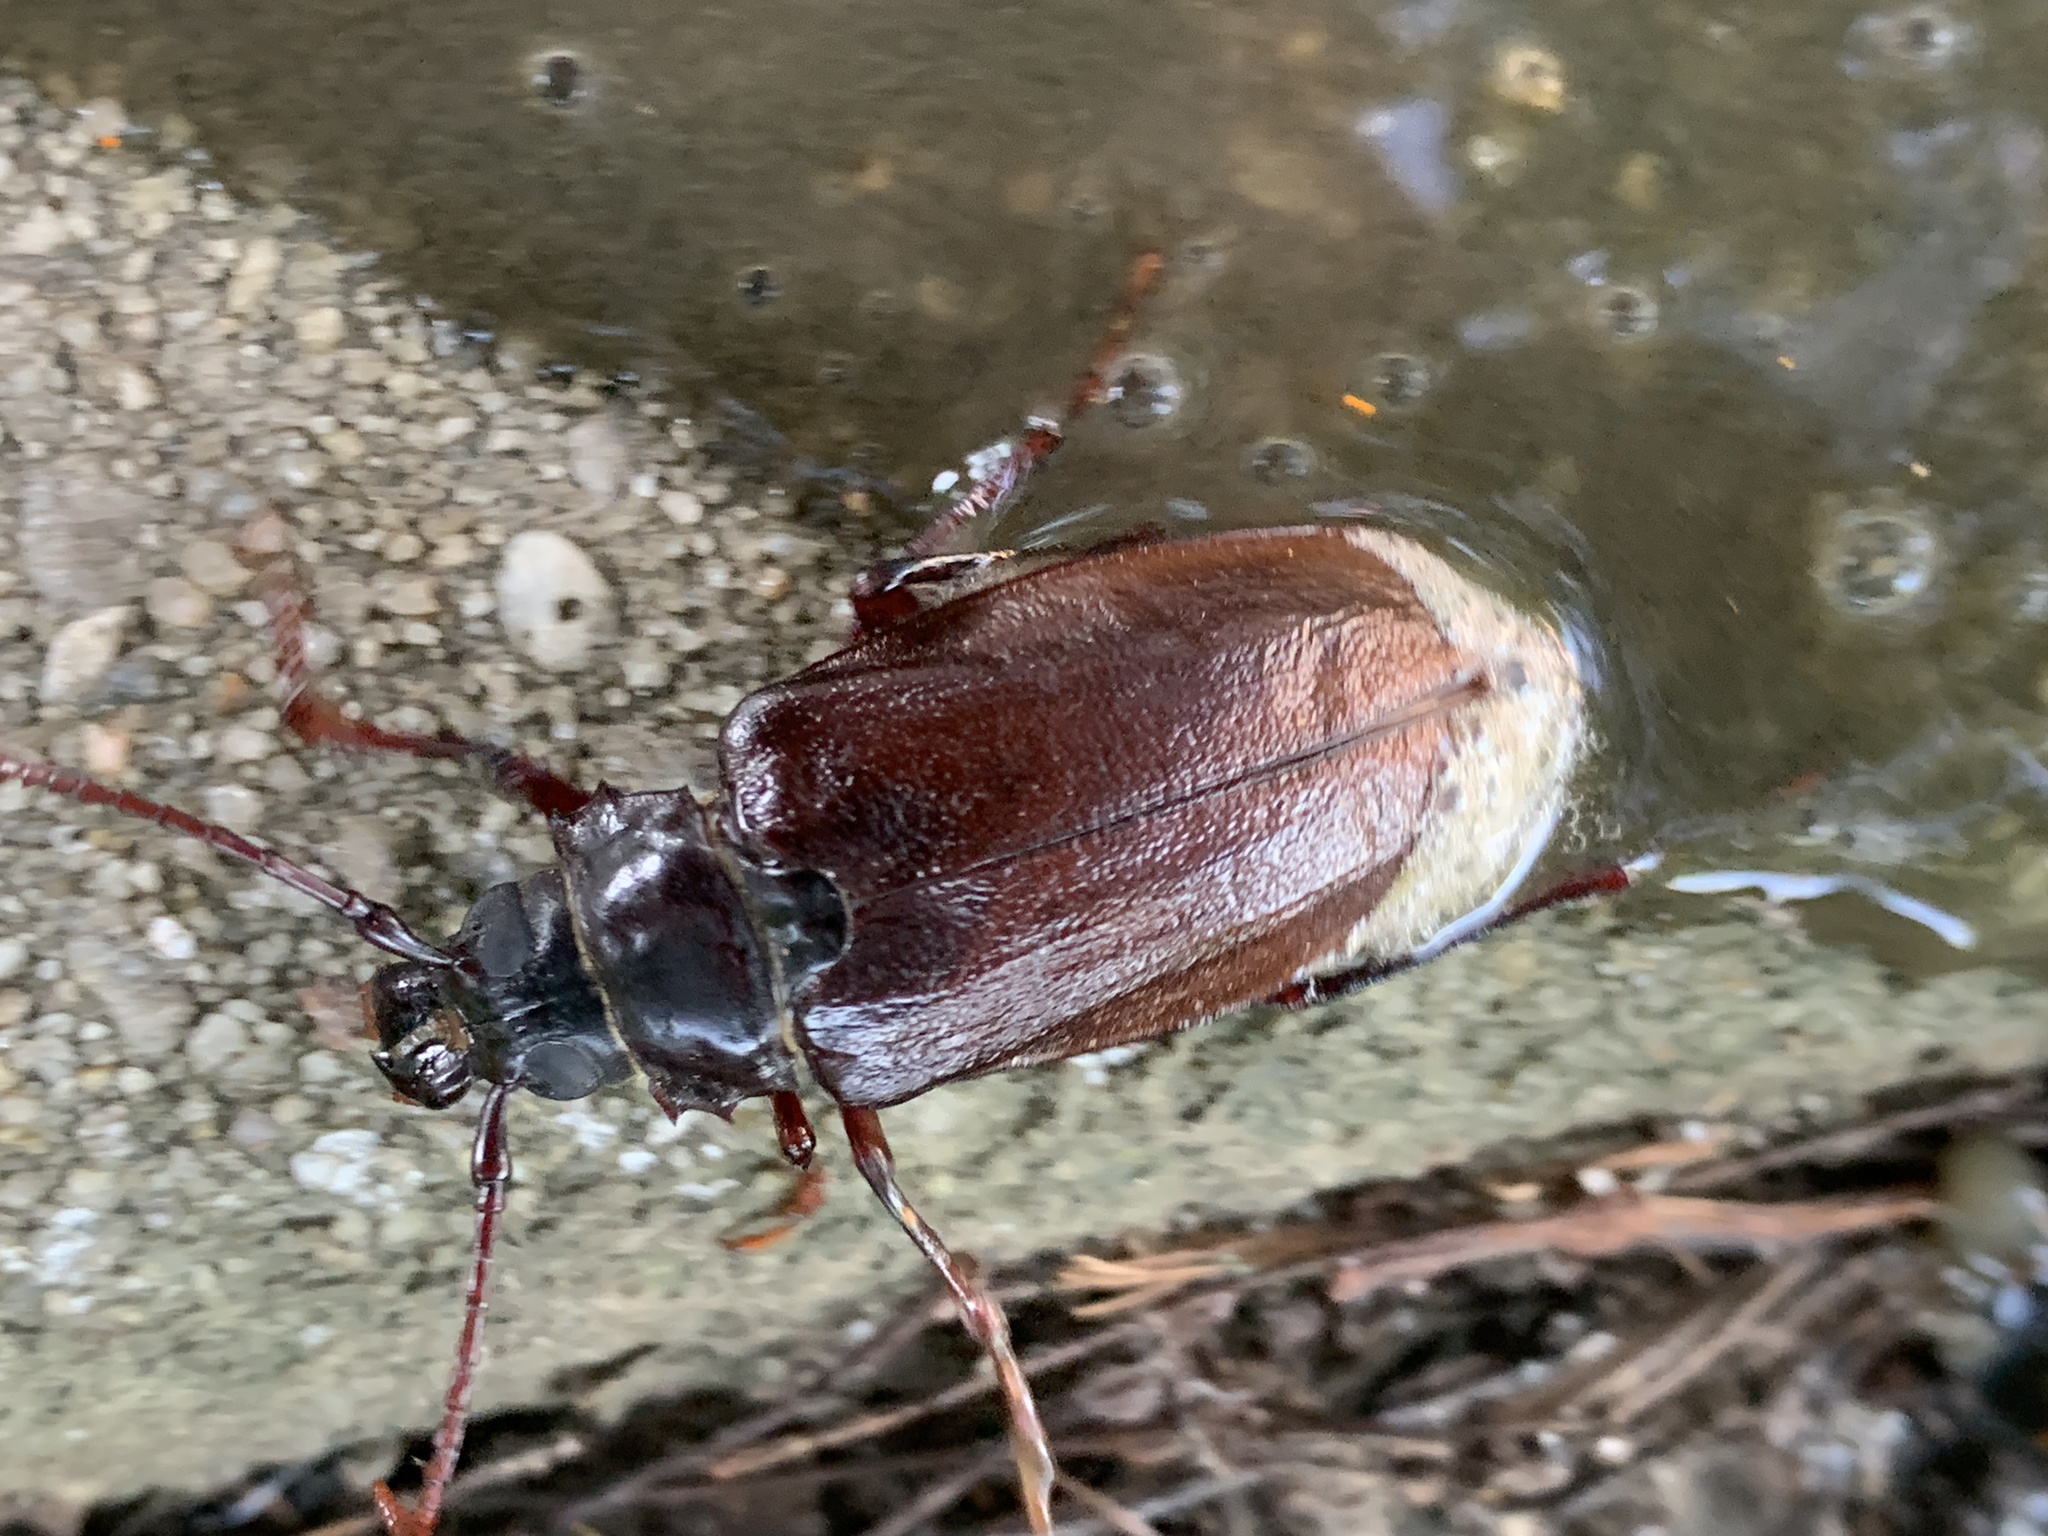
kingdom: Animalia
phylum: Arthropoda
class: Insecta
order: Coleoptera
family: Cerambycidae
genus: Prionus
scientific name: Prionus imbricornis
